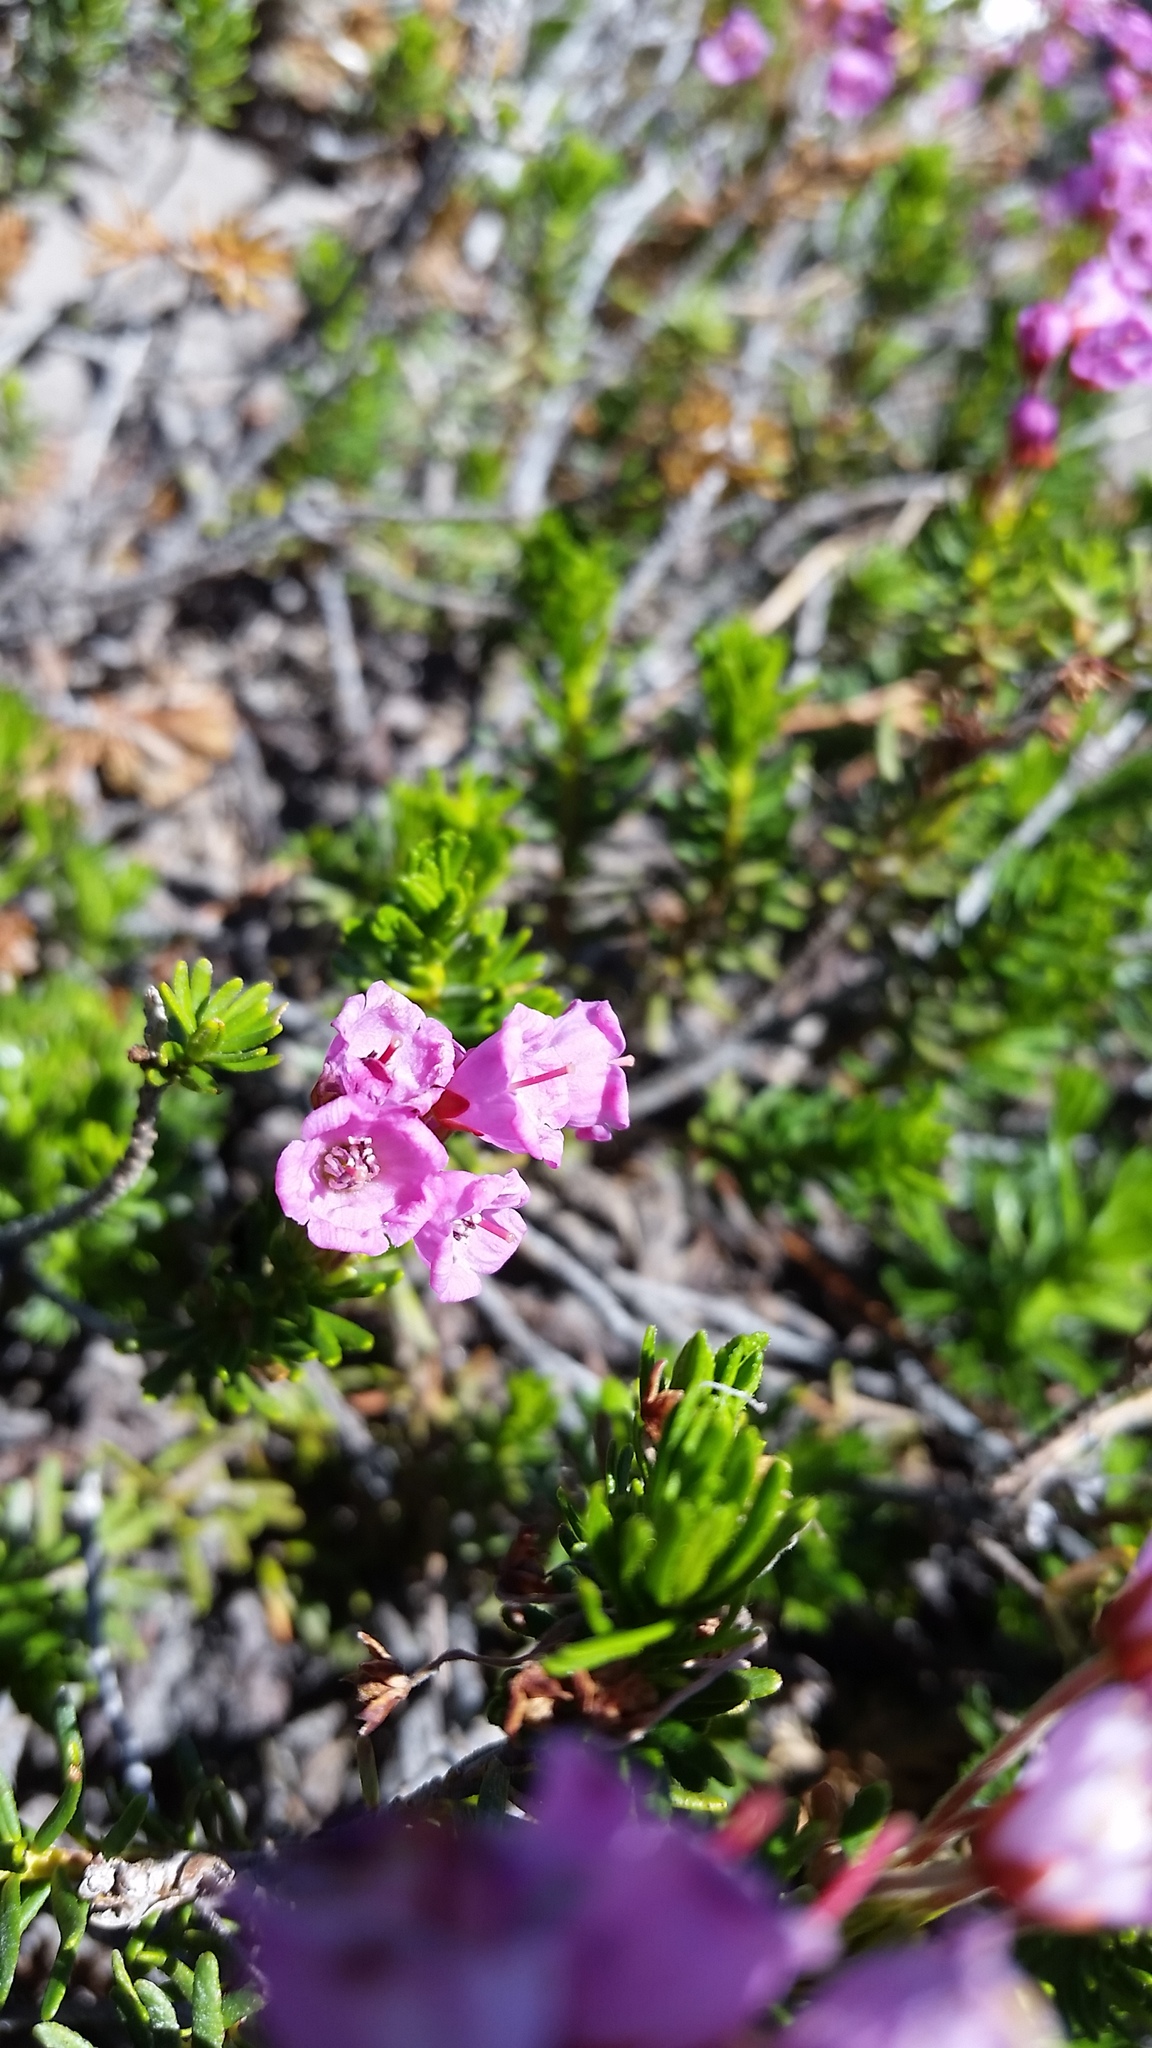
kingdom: Plantae
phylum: Tracheophyta
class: Magnoliopsida
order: Ericales
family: Ericaceae
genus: Phyllodoce
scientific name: Phyllodoce empetriformis
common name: Pink mountain heather
